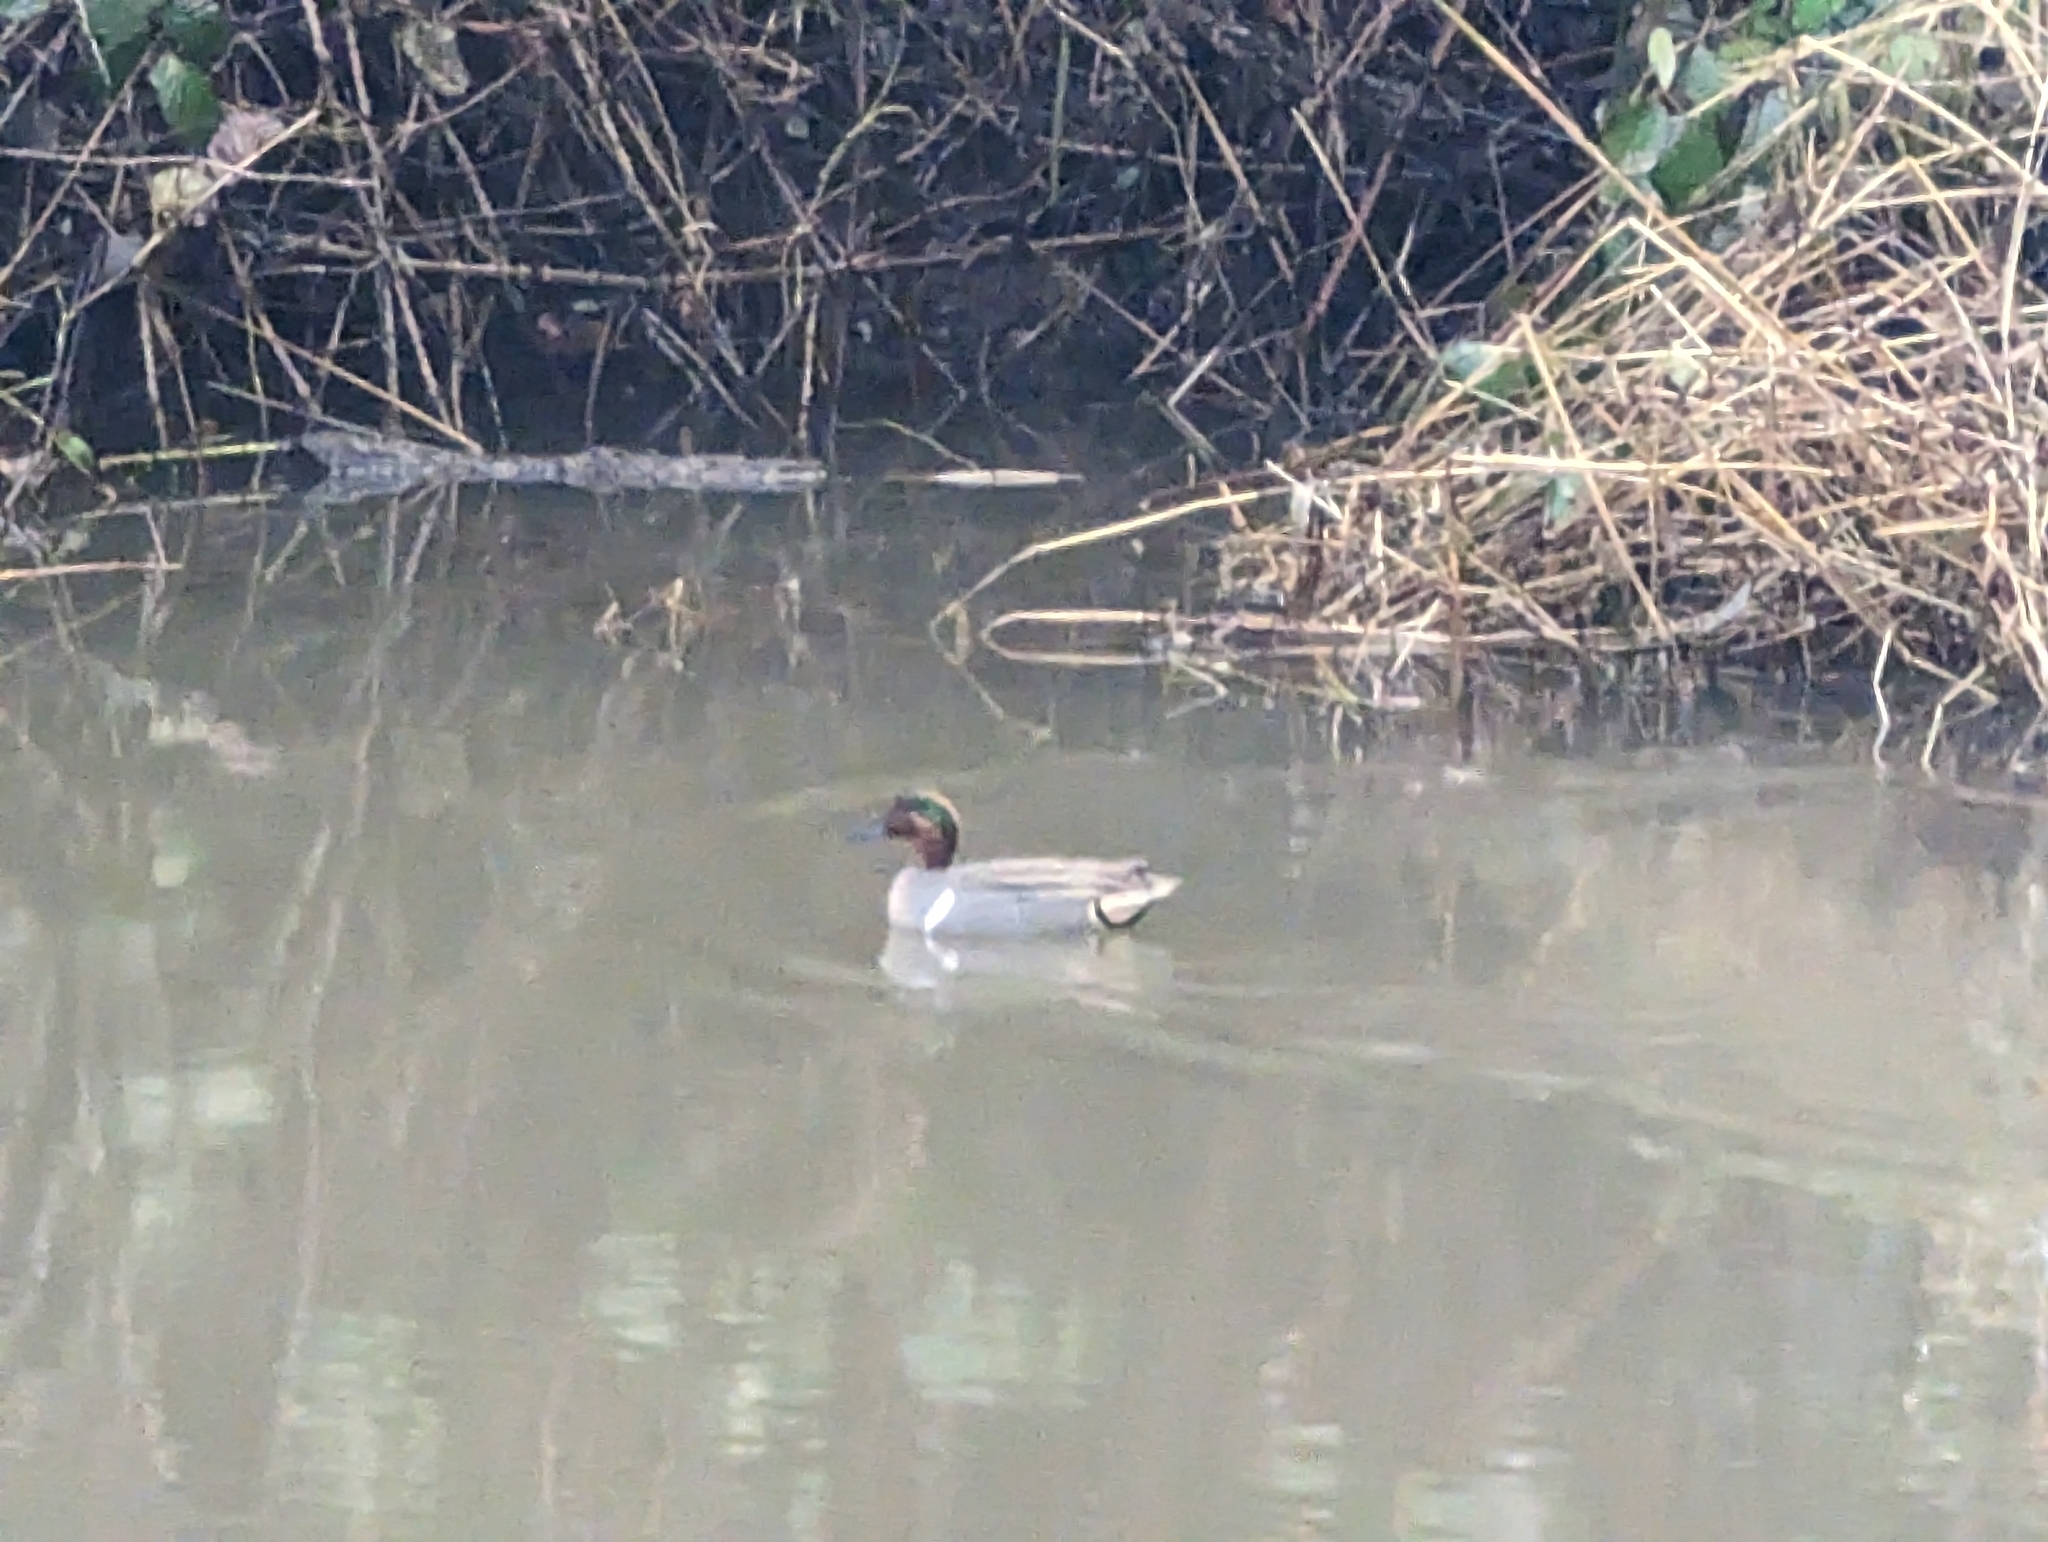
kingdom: Animalia
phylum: Chordata
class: Aves
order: Anseriformes
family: Anatidae
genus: Anas
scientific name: Anas crecca
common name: Eurasian teal
